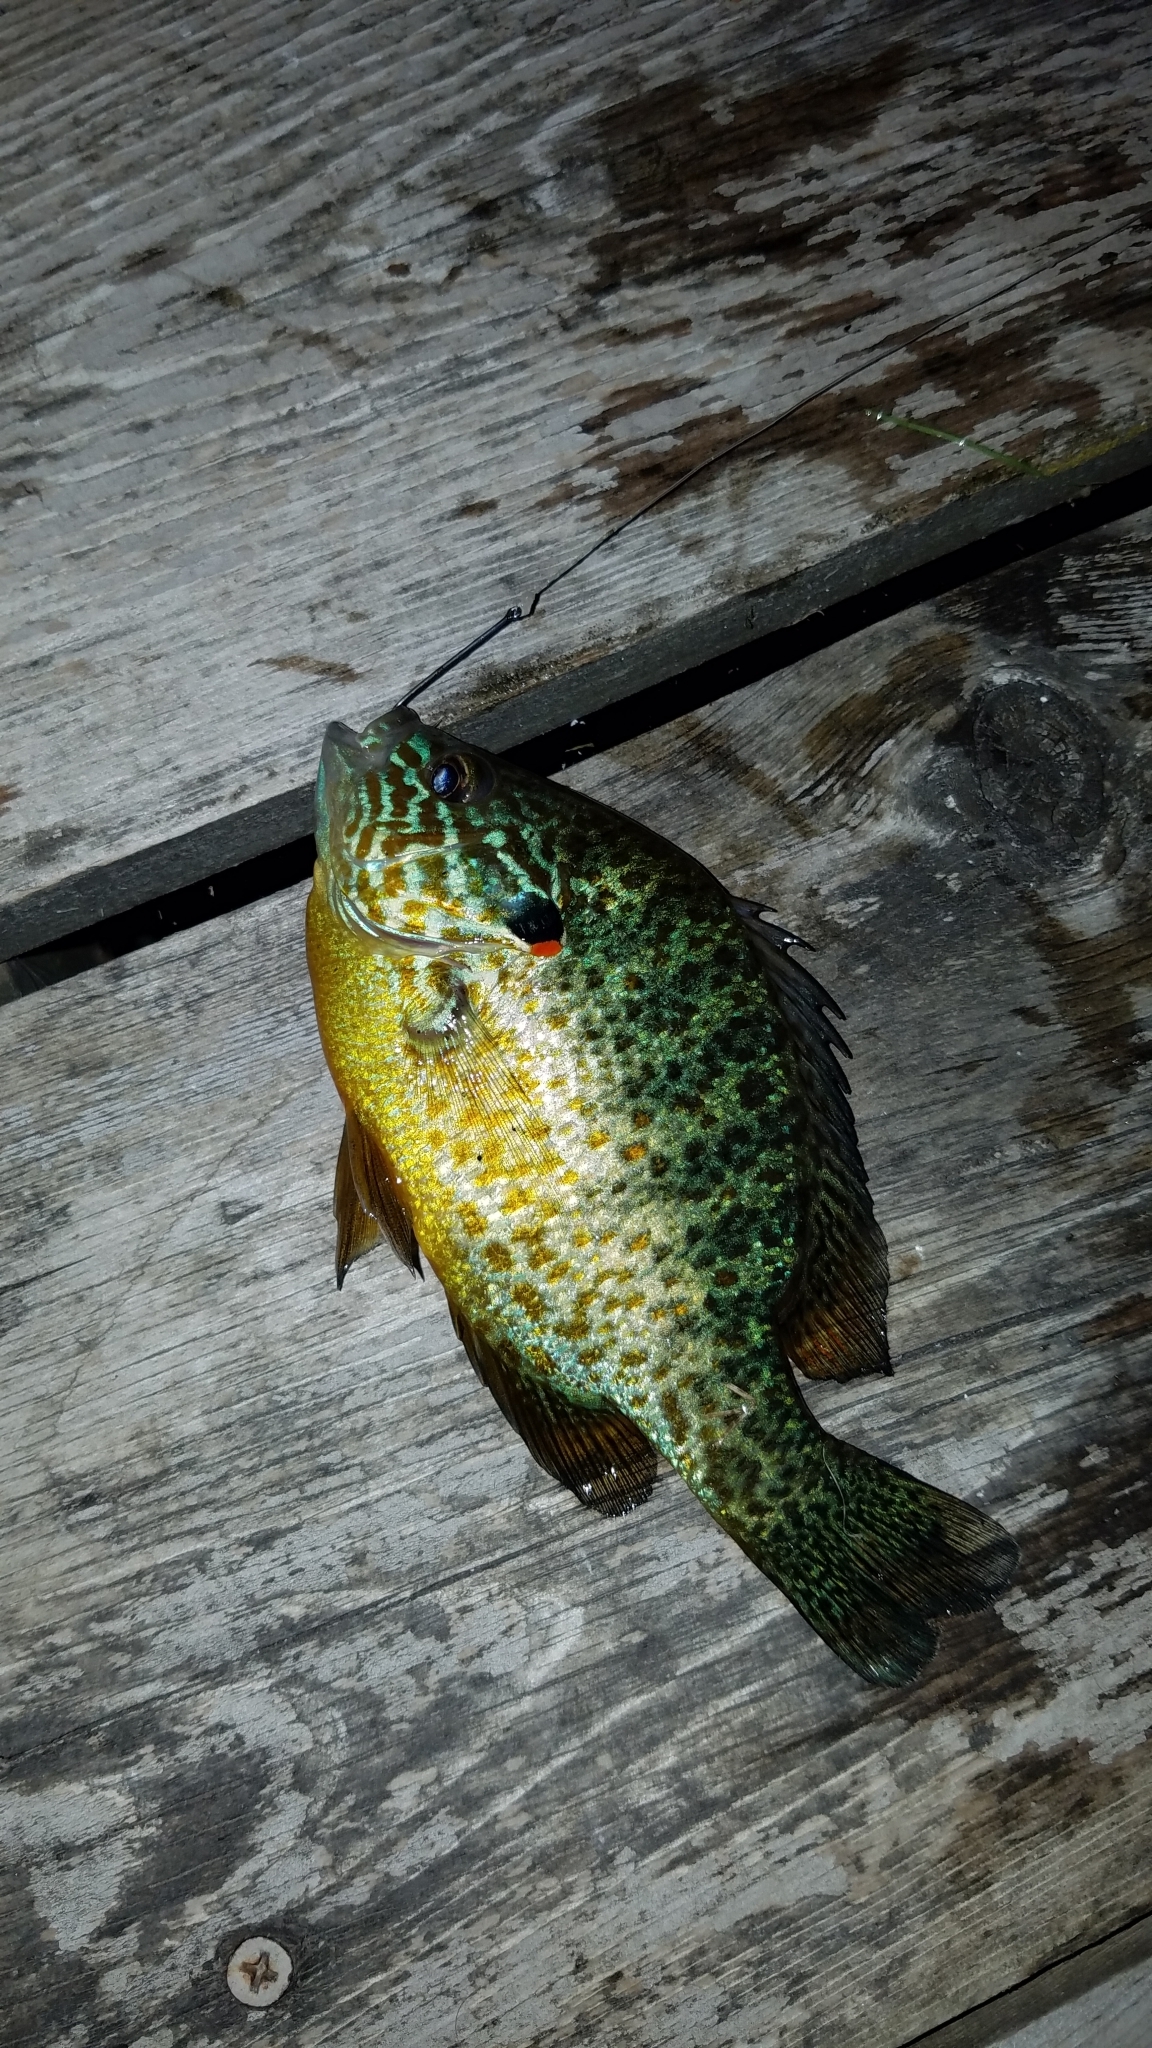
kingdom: Animalia
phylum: Chordata
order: Perciformes
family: Centrarchidae
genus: Lepomis
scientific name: Lepomis gibbosus
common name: Pumpkinseed
